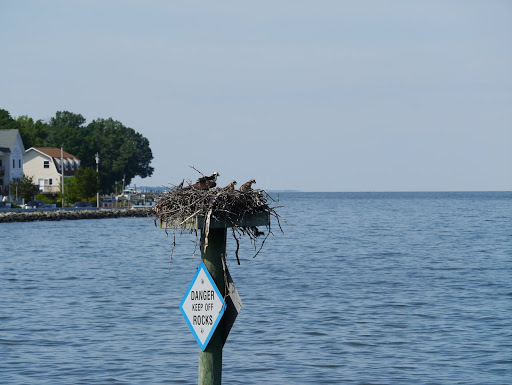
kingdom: Animalia
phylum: Chordata
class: Aves
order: Accipitriformes
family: Pandionidae
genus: Pandion
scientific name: Pandion haliaetus
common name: Osprey
